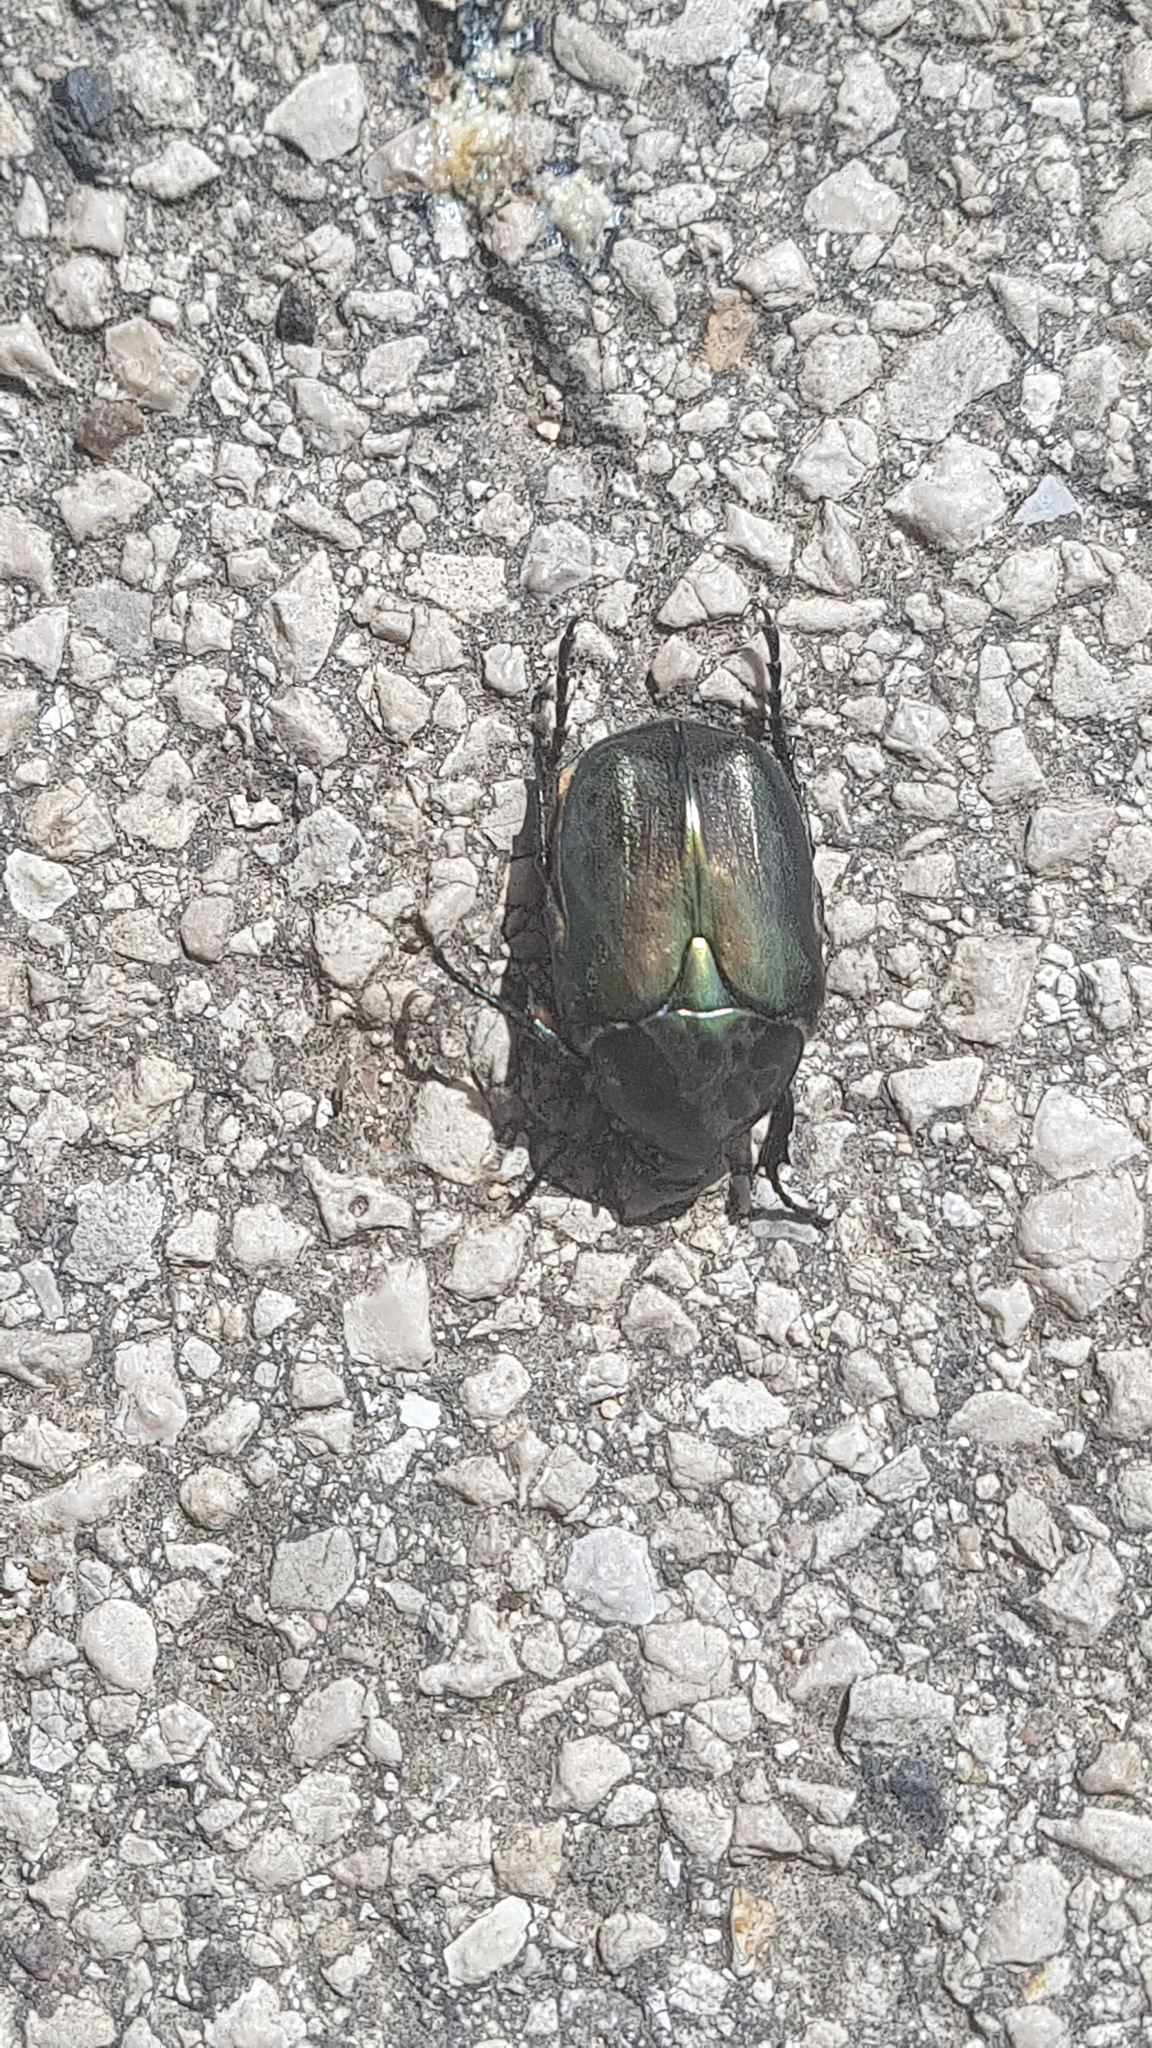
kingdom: Animalia
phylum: Arthropoda
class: Insecta
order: Coleoptera
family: Scarabaeidae
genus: Protaetia
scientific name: Protaetia angustata
